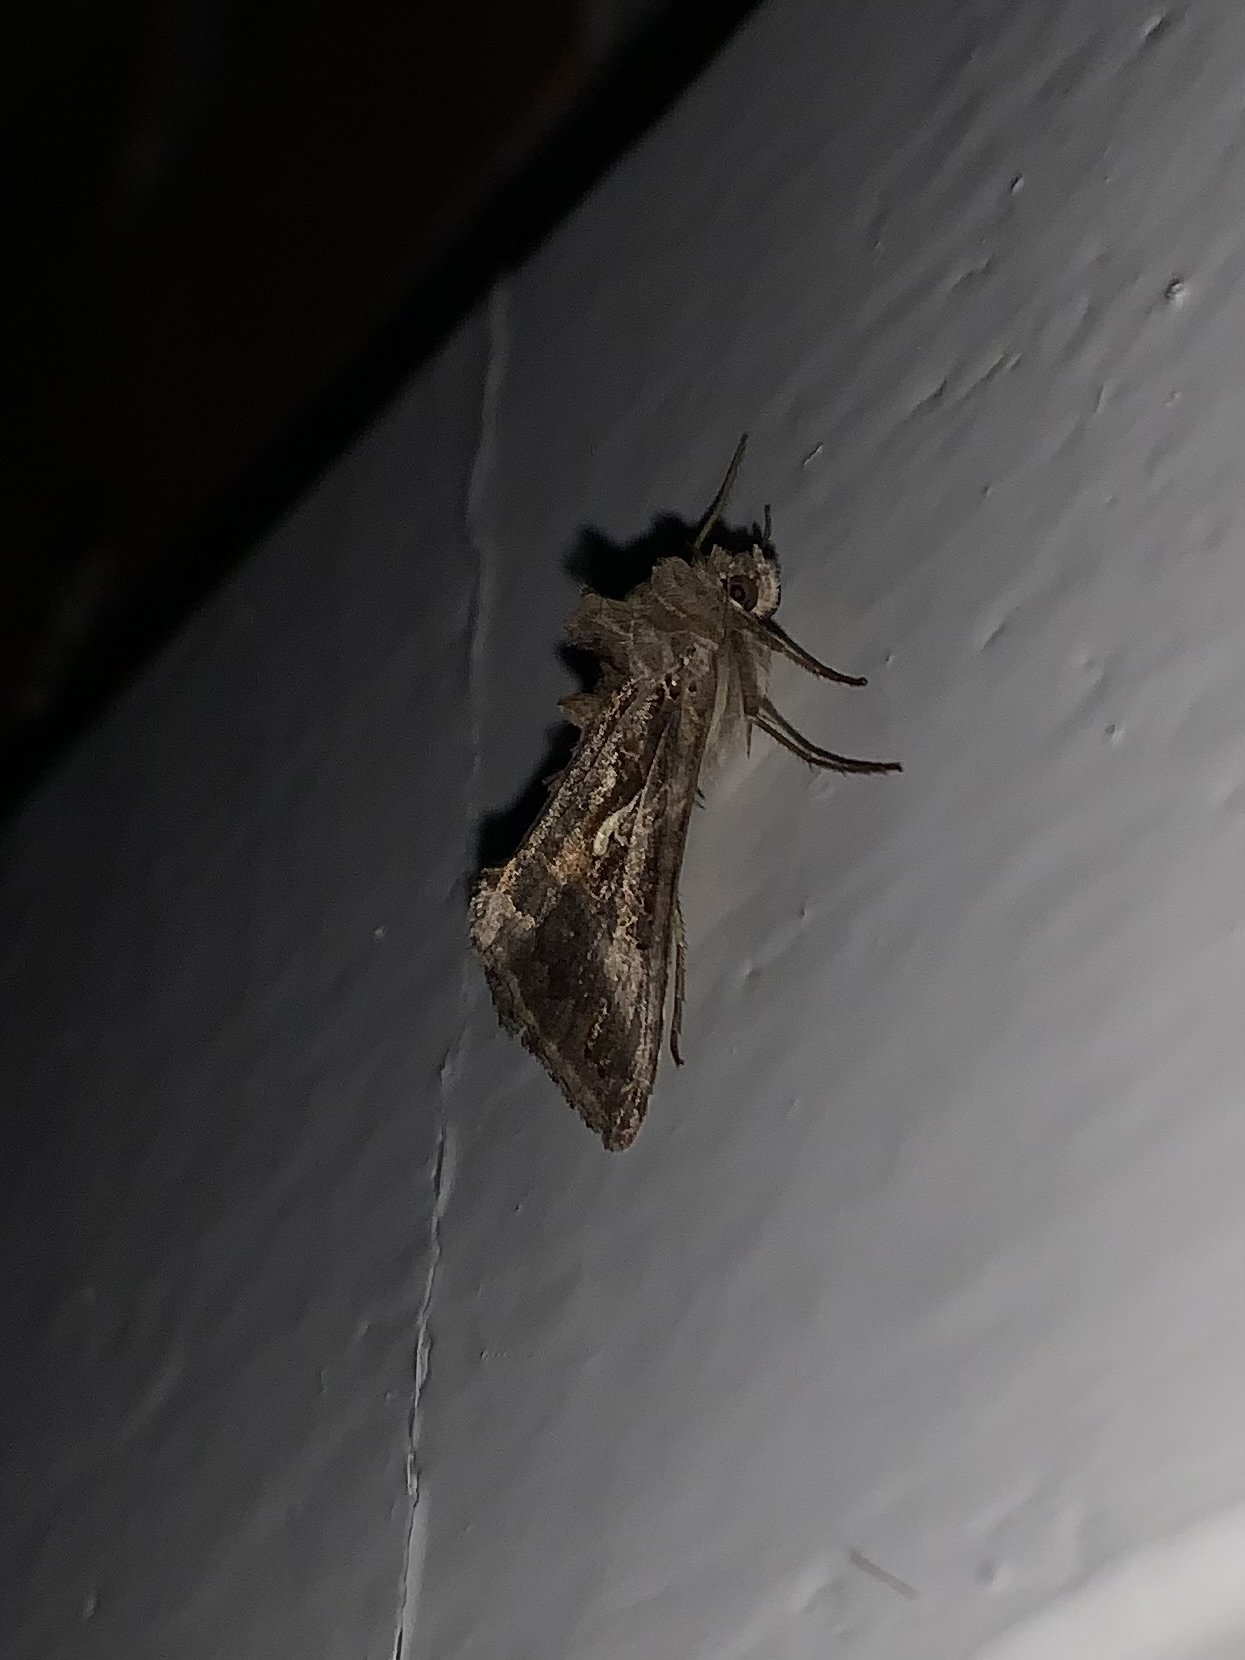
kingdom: Animalia
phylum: Arthropoda
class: Insecta
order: Lepidoptera
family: Noctuidae
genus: Autographa
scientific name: Autographa gamma
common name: Silver y
